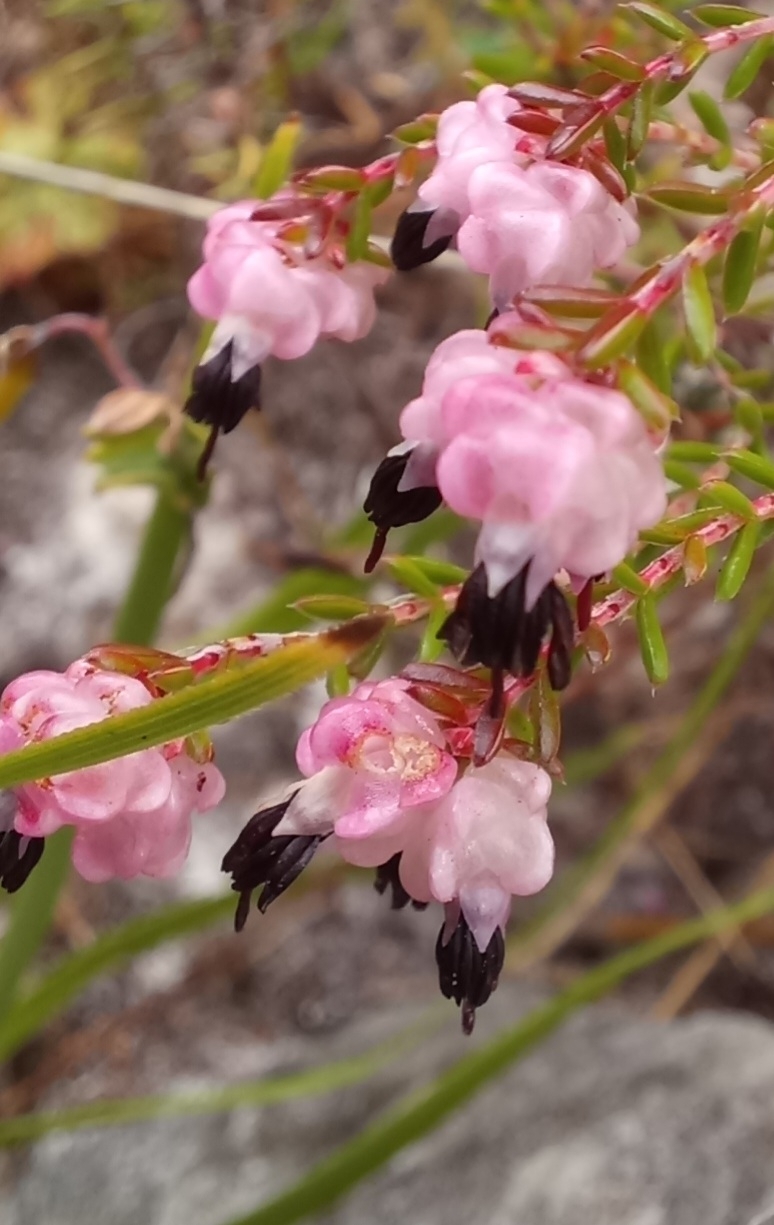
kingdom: Plantae
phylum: Tracheophyta
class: Magnoliopsida
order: Ericales
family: Ericaceae
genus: Erica
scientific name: Erica spumosa
